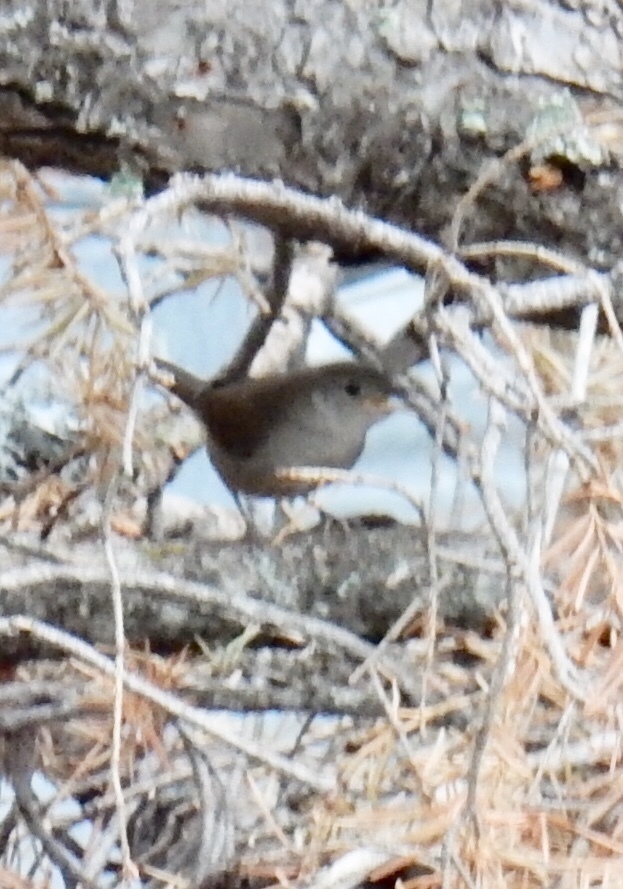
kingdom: Animalia
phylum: Chordata
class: Aves
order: Passeriformes
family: Troglodytidae
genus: Troglodytes
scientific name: Troglodytes aedon
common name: House wren
